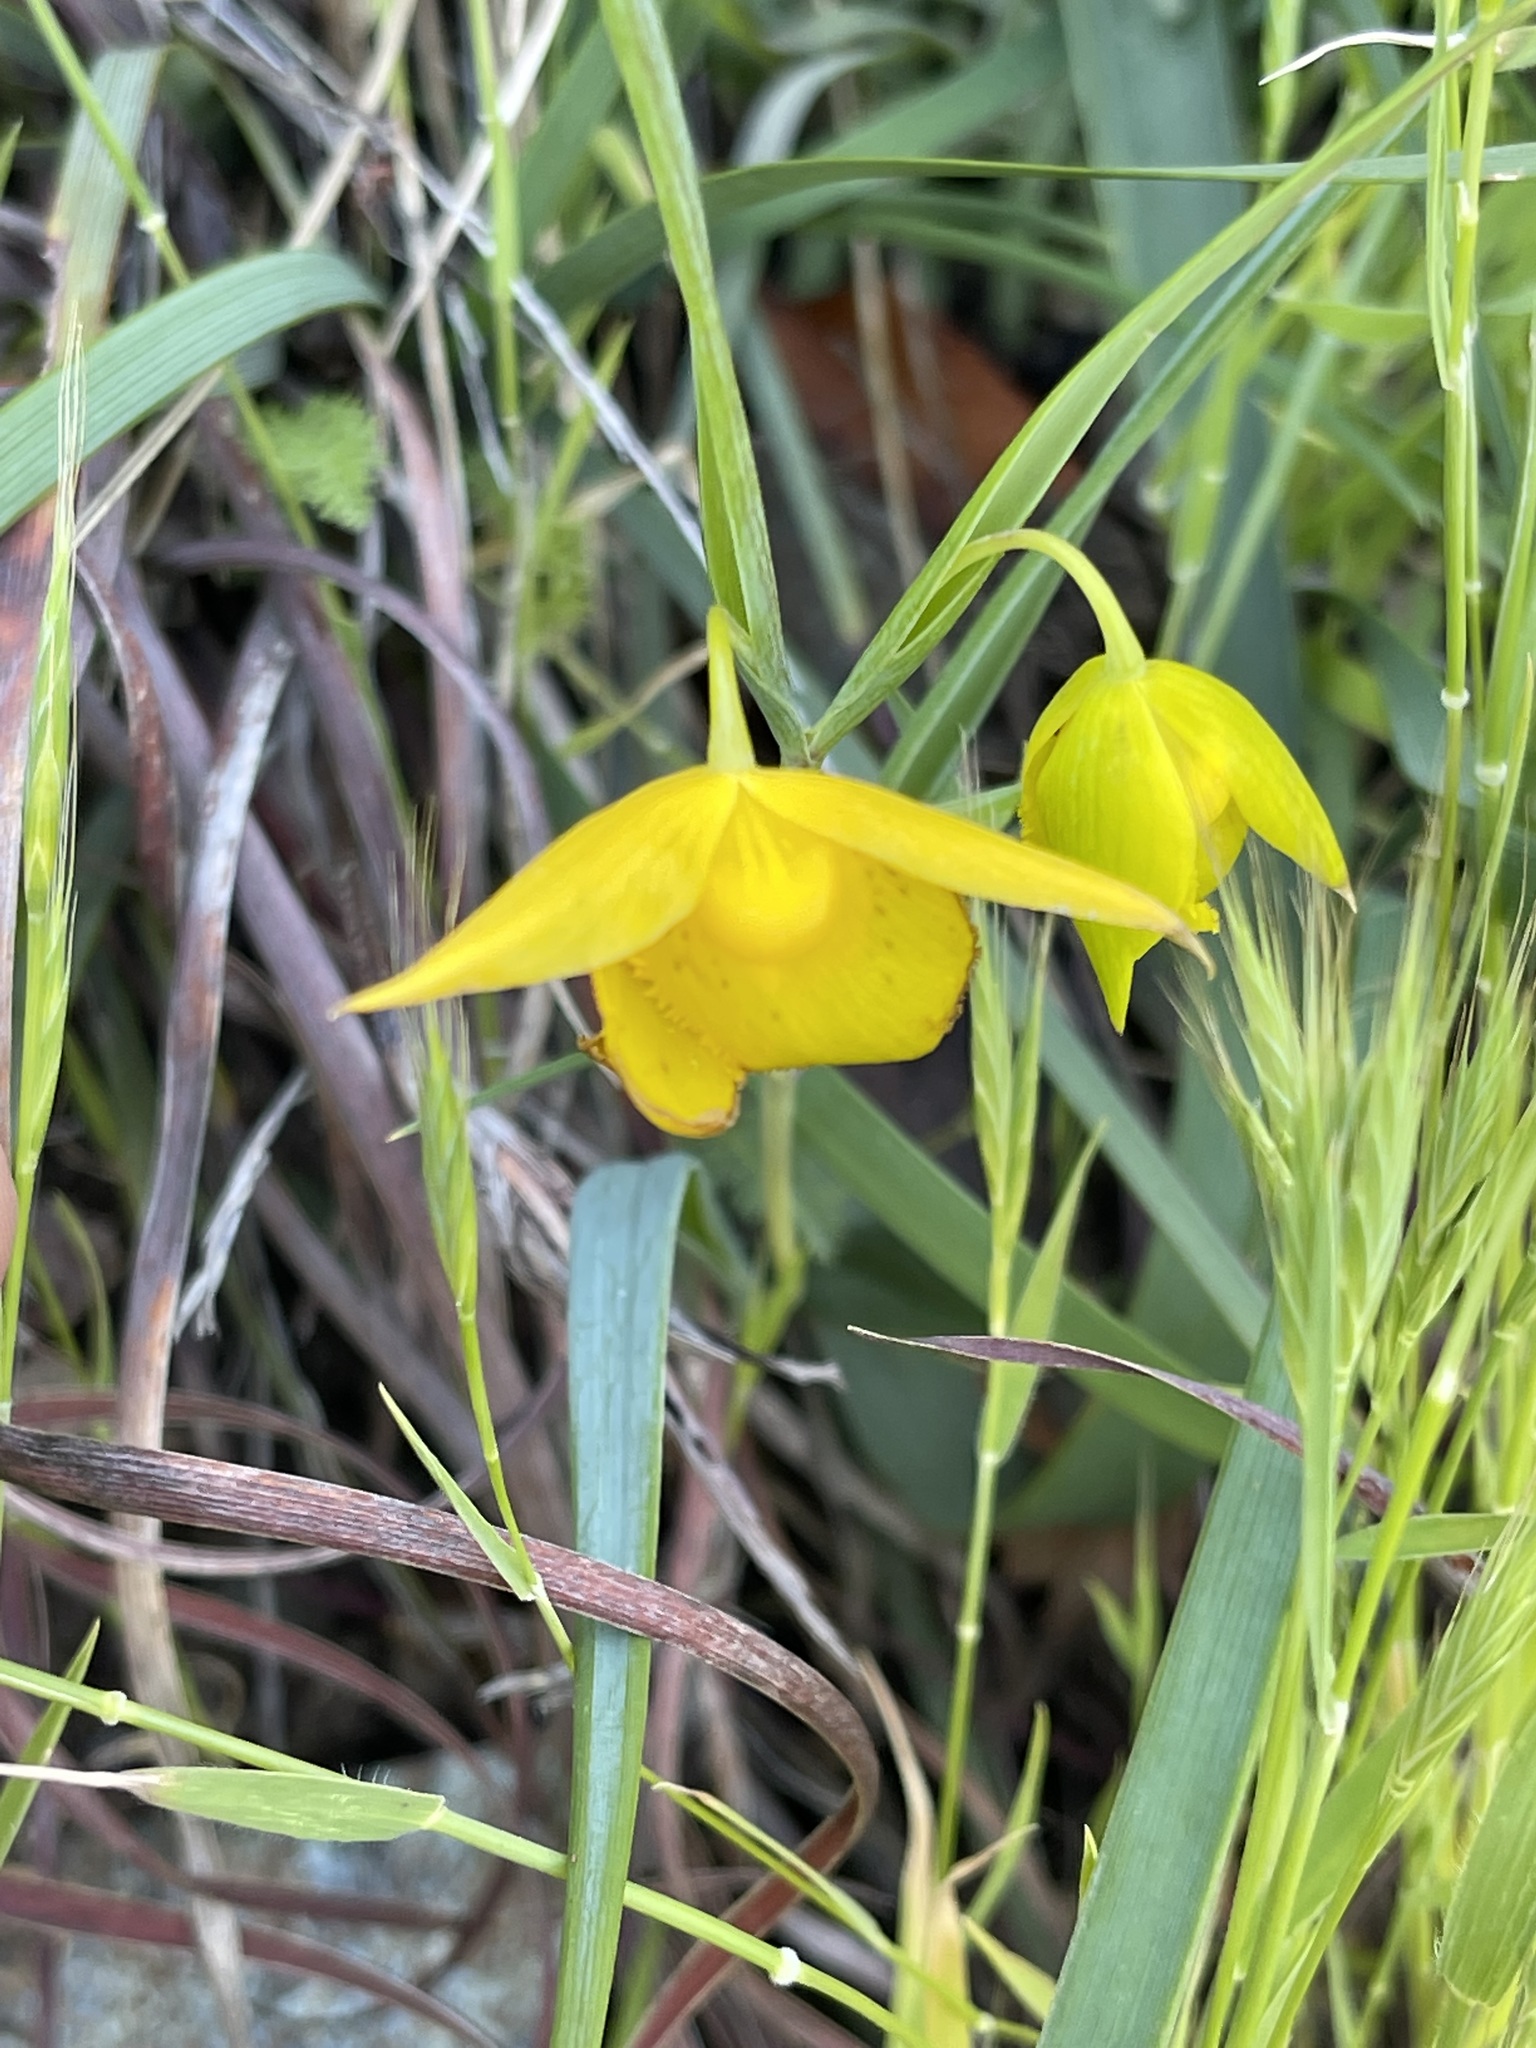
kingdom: Plantae
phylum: Tracheophyta
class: Liliopsida
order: Liliales
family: Liliaceae
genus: Calochortus
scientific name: Calochortus amabilis
